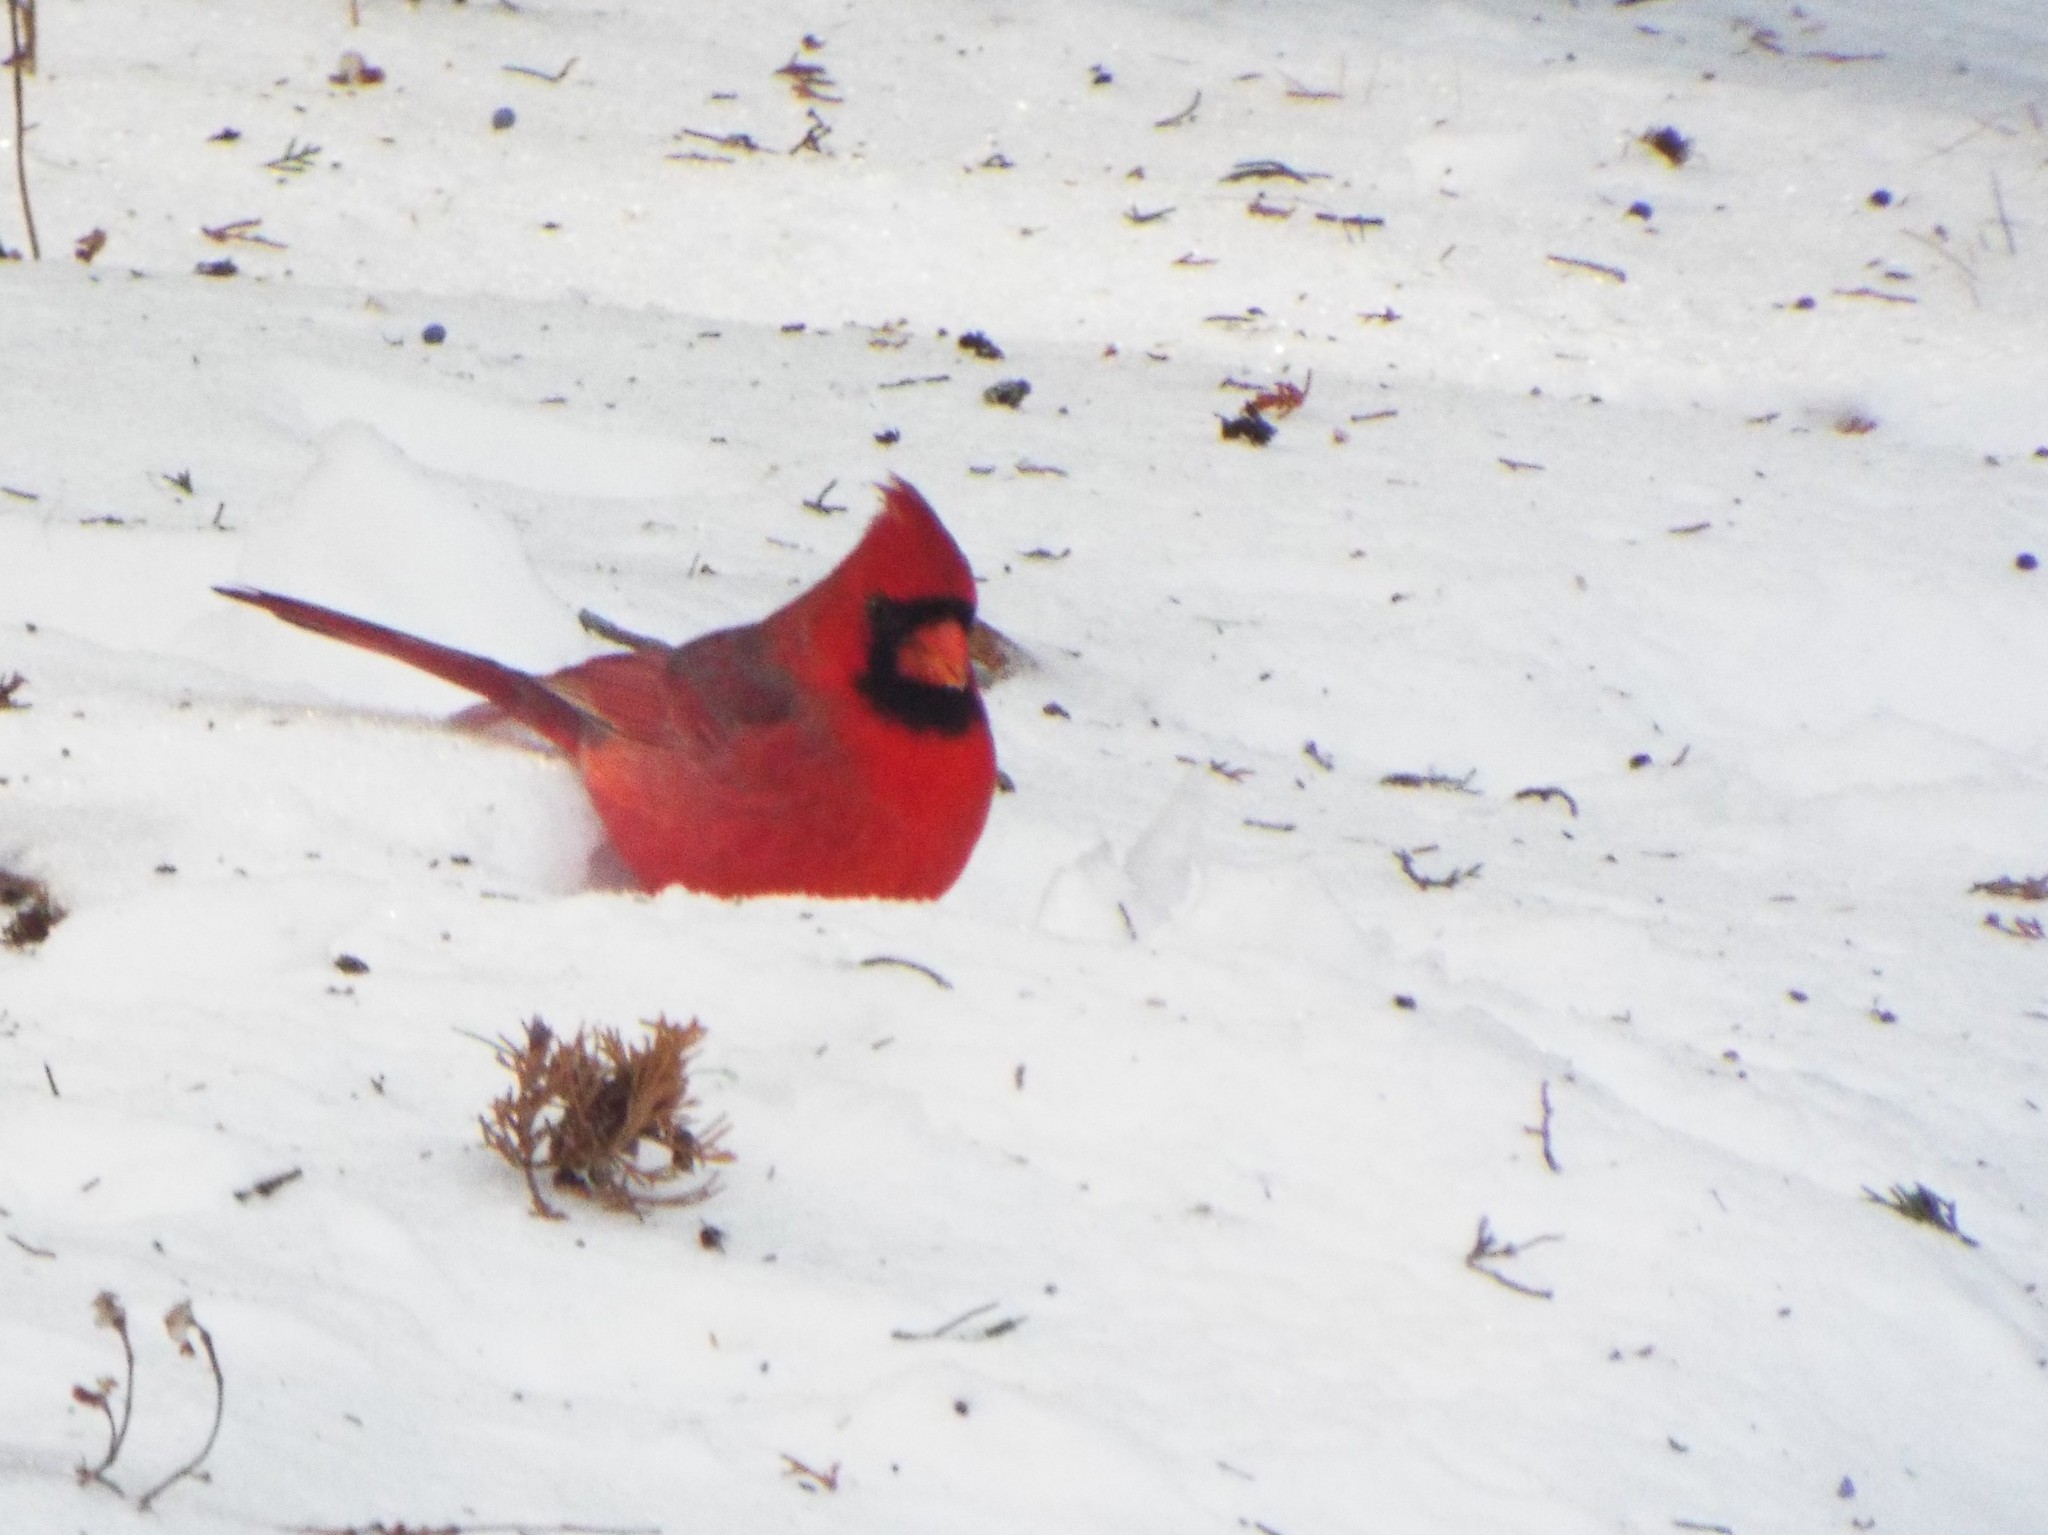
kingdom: Animalia
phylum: Chordata
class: Aves
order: Passeriformes
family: Cardinalidae
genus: Cardinalis
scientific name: Cardinalis cardinalis
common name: Northern cardinal
